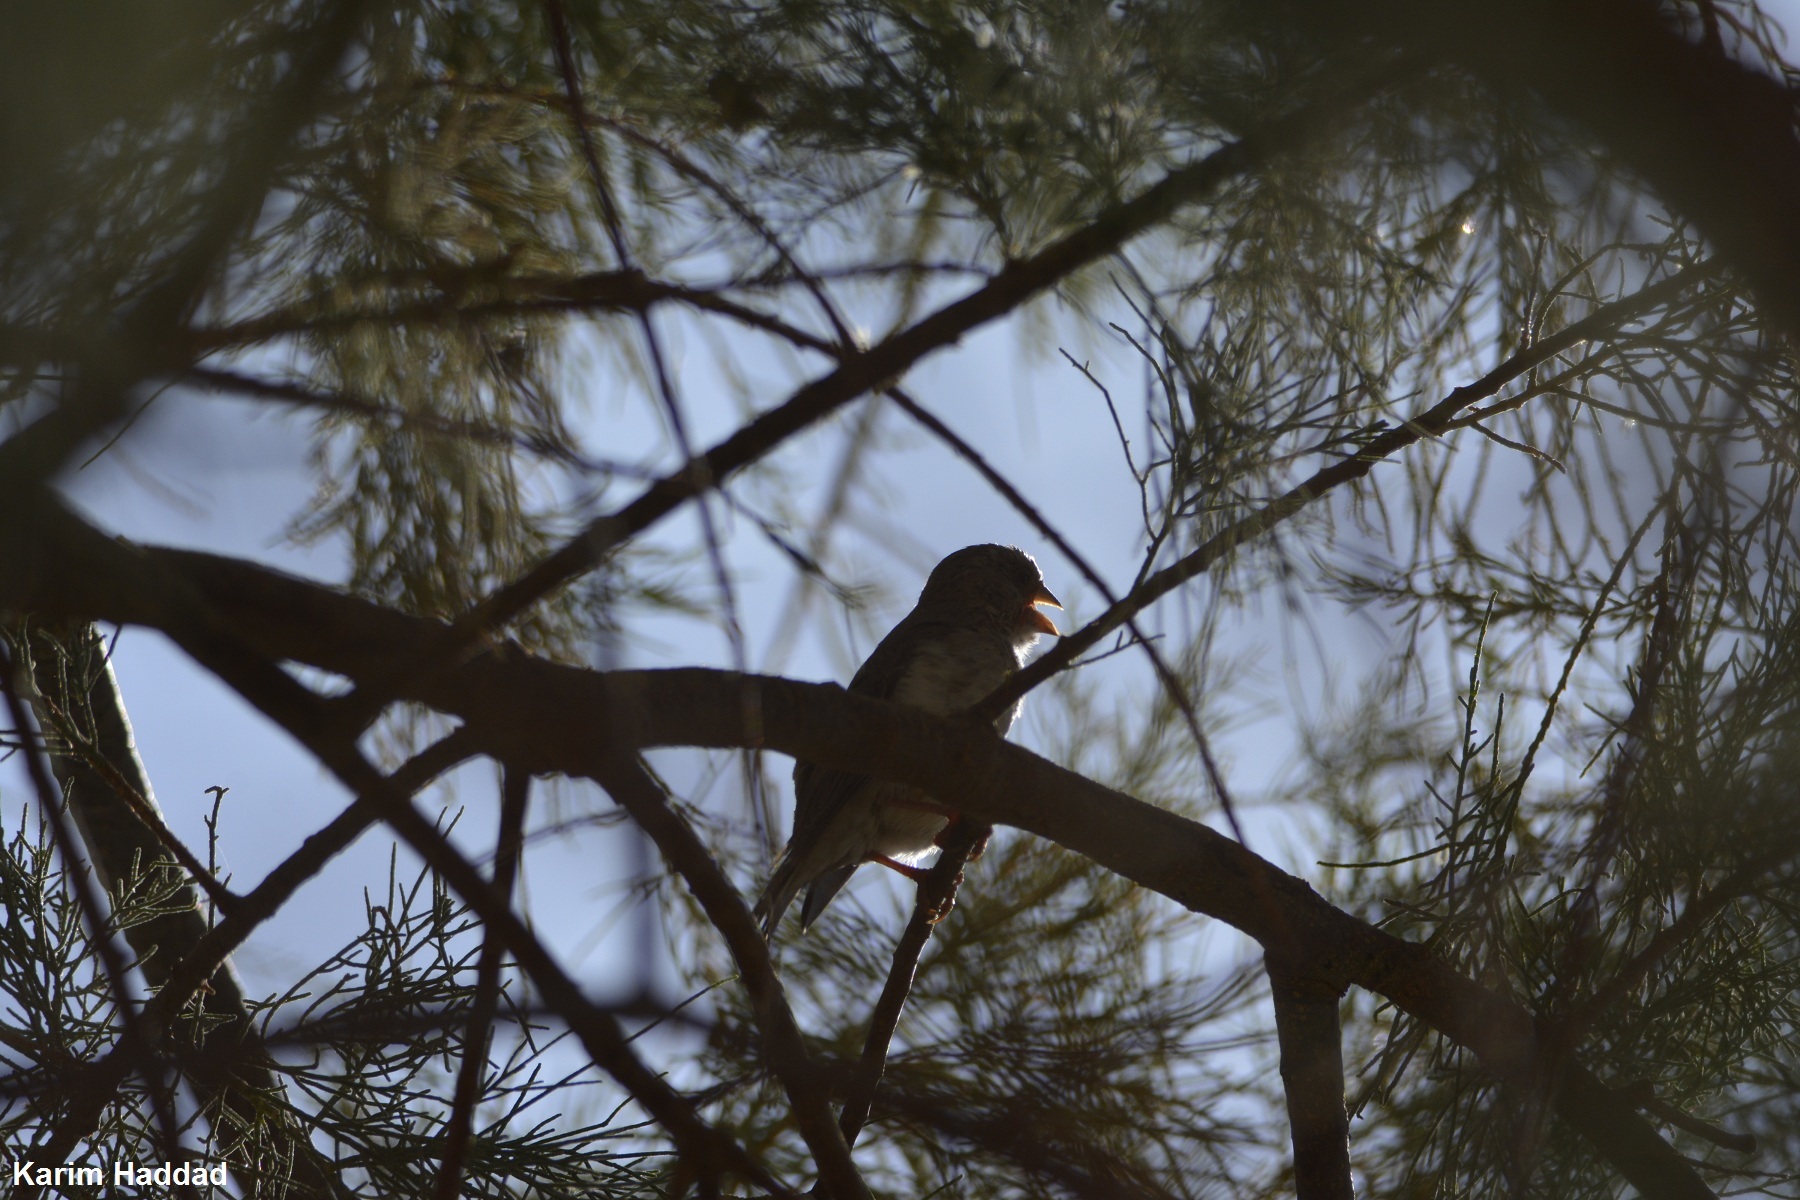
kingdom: Animalia
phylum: Chordata
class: Aves
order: Passeriformes
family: Fringillidae
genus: Crithagra
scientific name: Crithagra leucopygia
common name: White-rumped seedeater
